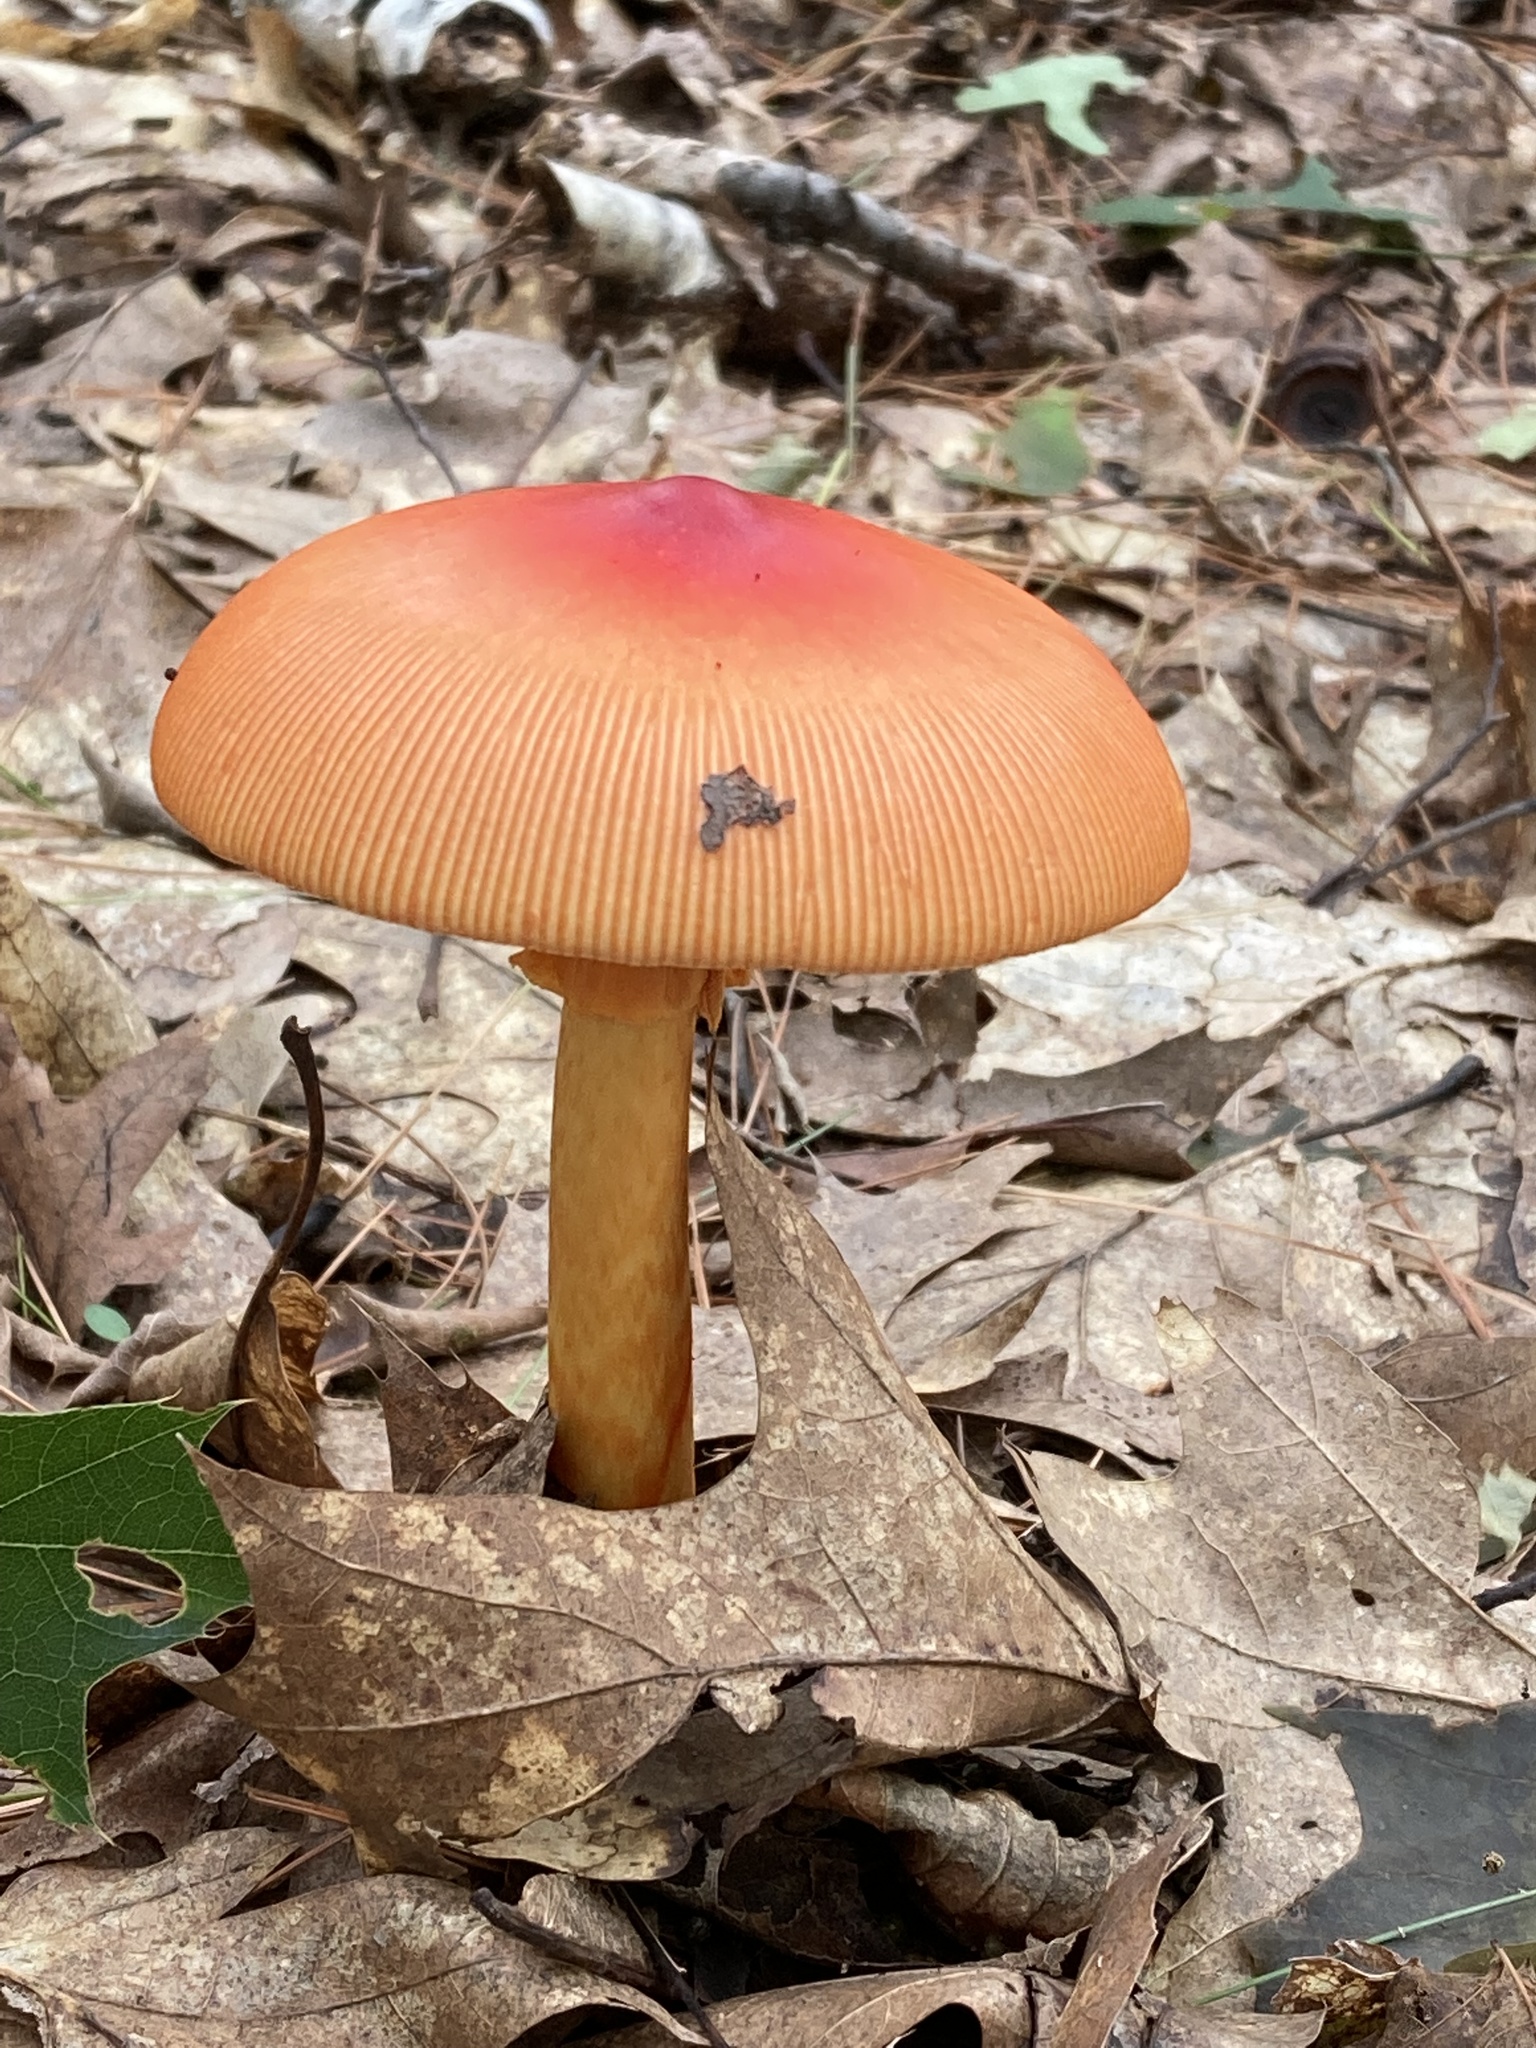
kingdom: Fungi
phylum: Basidiomycota
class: Agaricomycetes
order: Agaricales
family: Amanitaceae
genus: Amanita
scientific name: Amanita jacksonii
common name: Jackson's slender caesar
